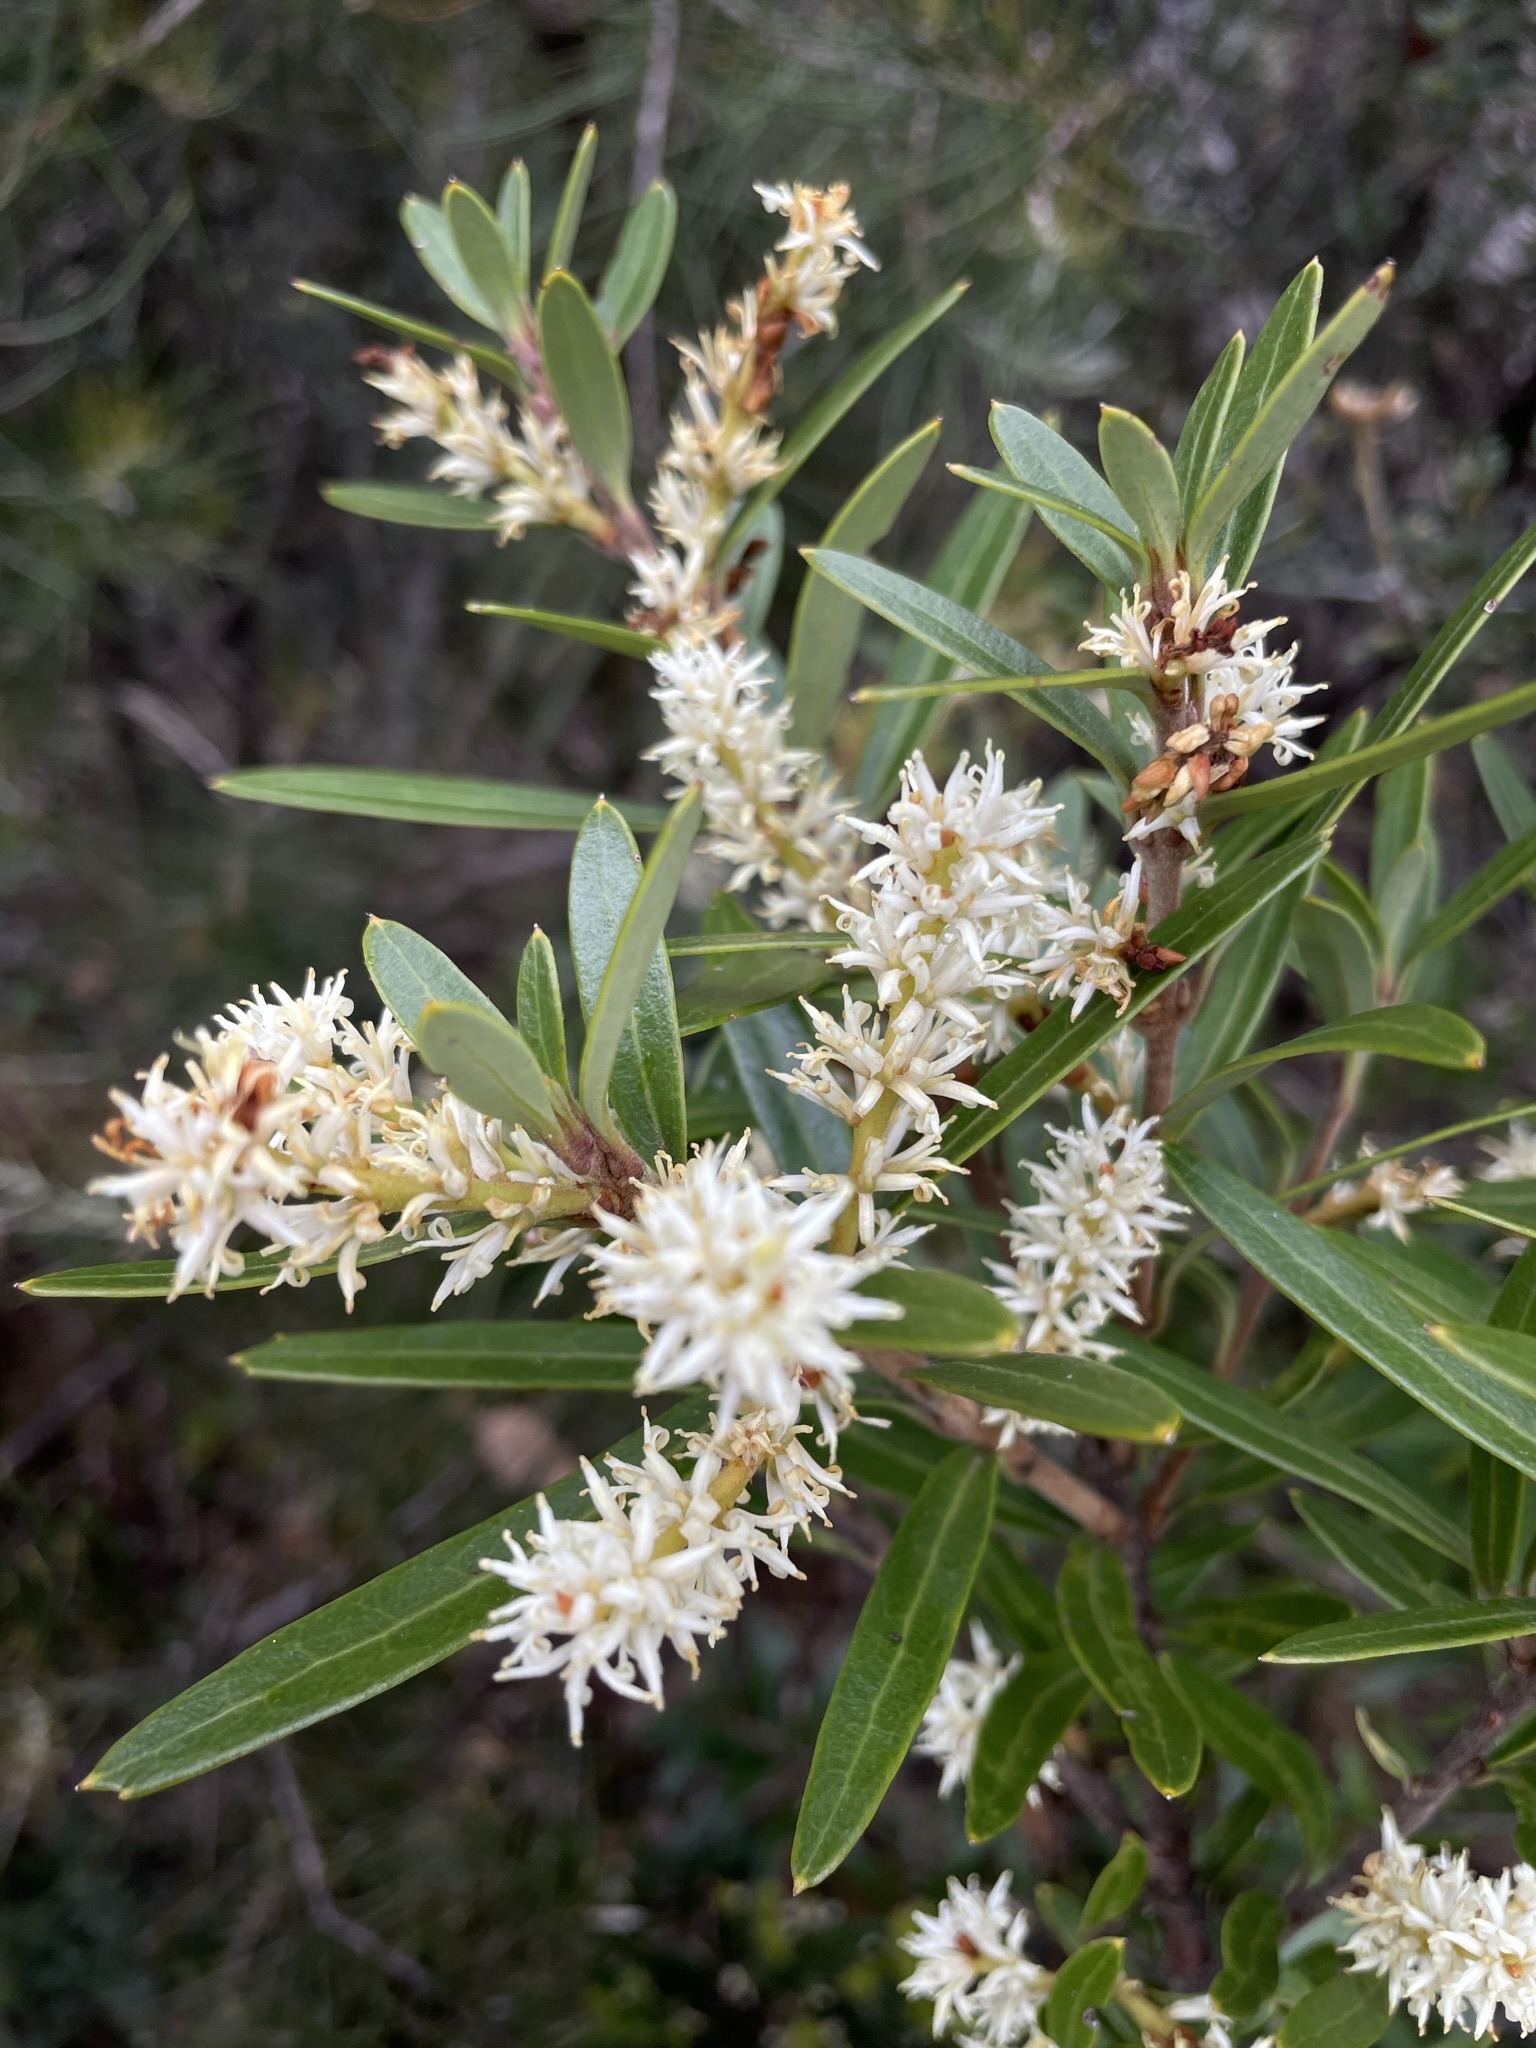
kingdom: Plantae
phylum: Tracheophyta
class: Magnoliopsida
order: Proteales
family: Proteaceae
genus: Orites
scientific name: Orites diversifolius
